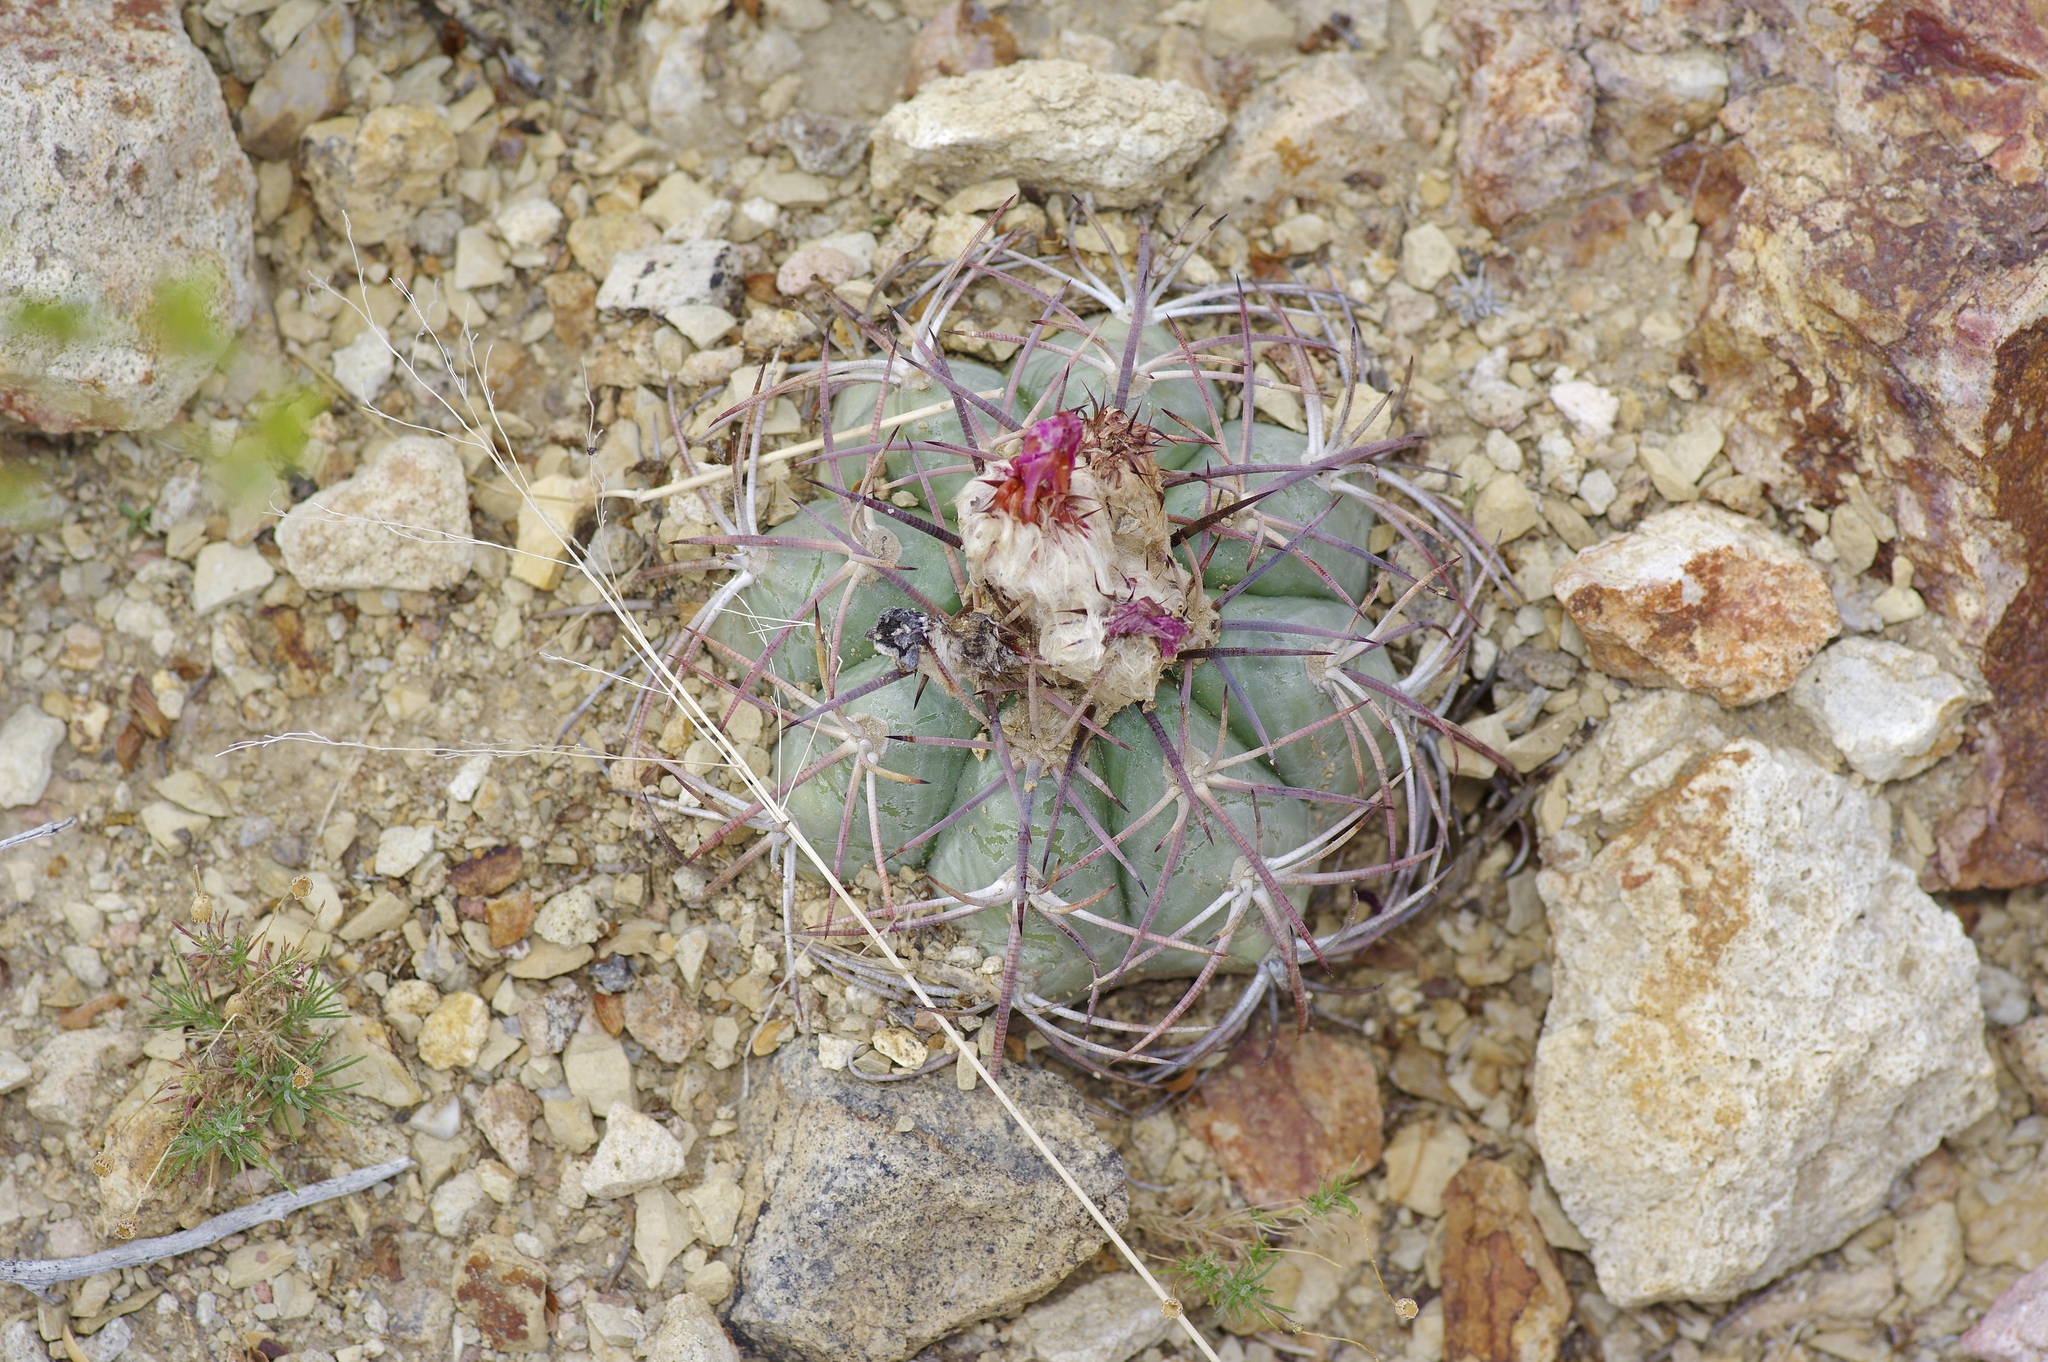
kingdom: Plantae
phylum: Tracheophyta
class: Magnoliopsida
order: Caryophyllales
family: Cactaceae
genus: Echinocactus
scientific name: Echinocactus horizonthalonius
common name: Devilshead
